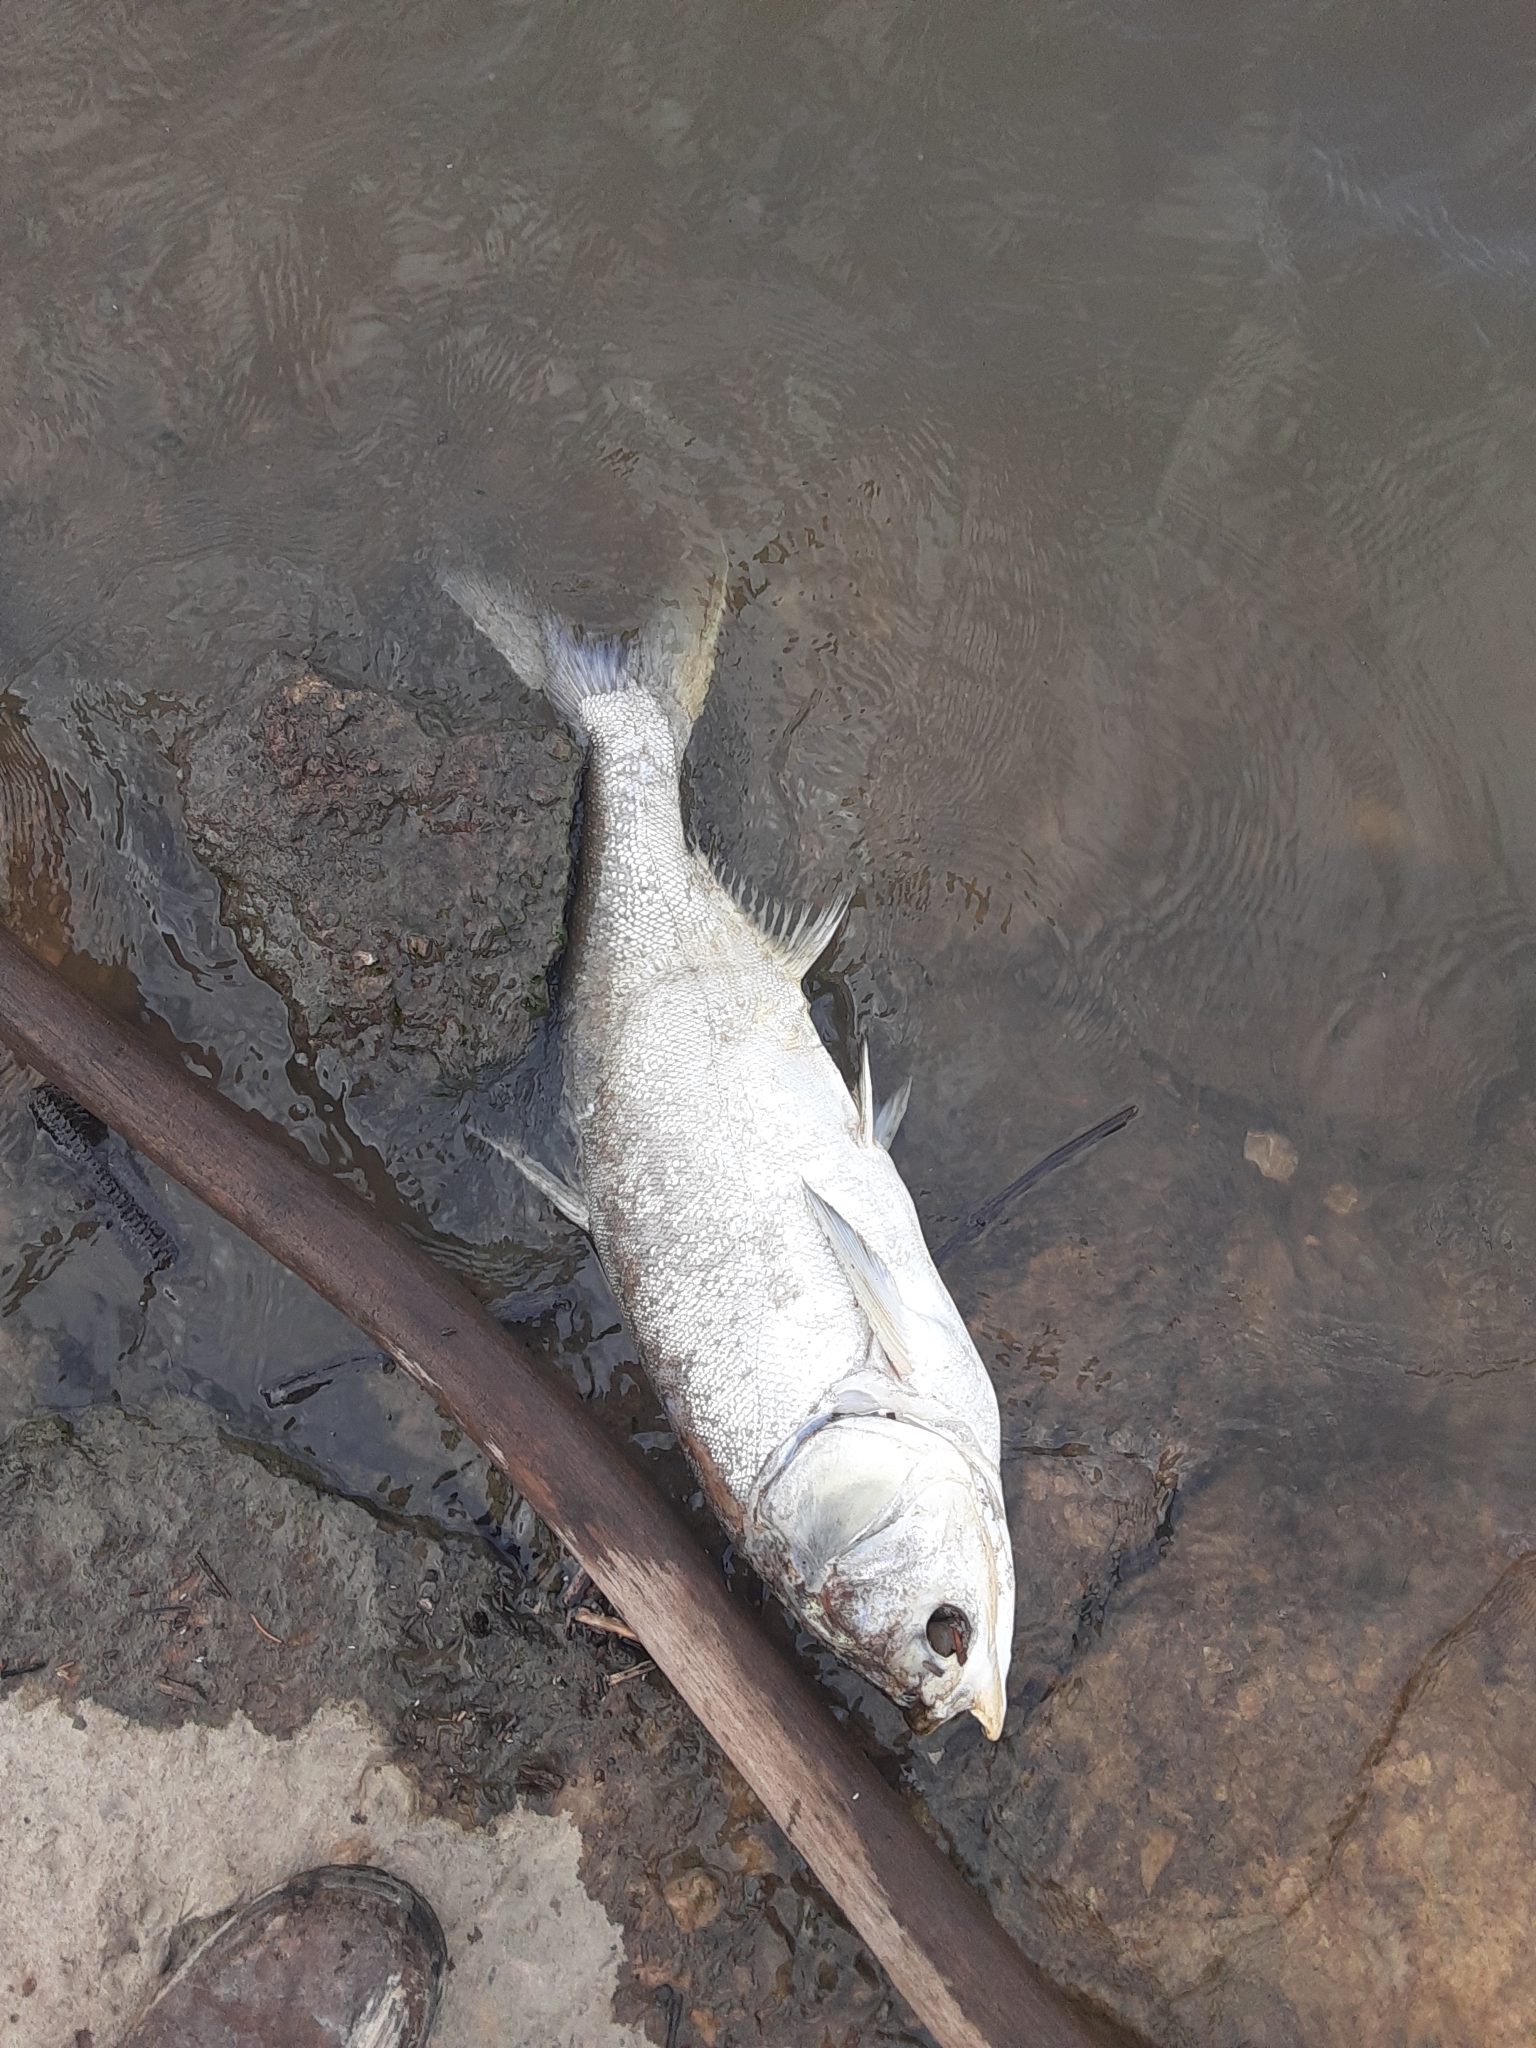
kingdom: Animalia
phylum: Chordata
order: Cypriniformes
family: Cyprinidae
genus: Hypophthalmichthys
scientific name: Hypophthalmichthys molitrix
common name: Silver carp
